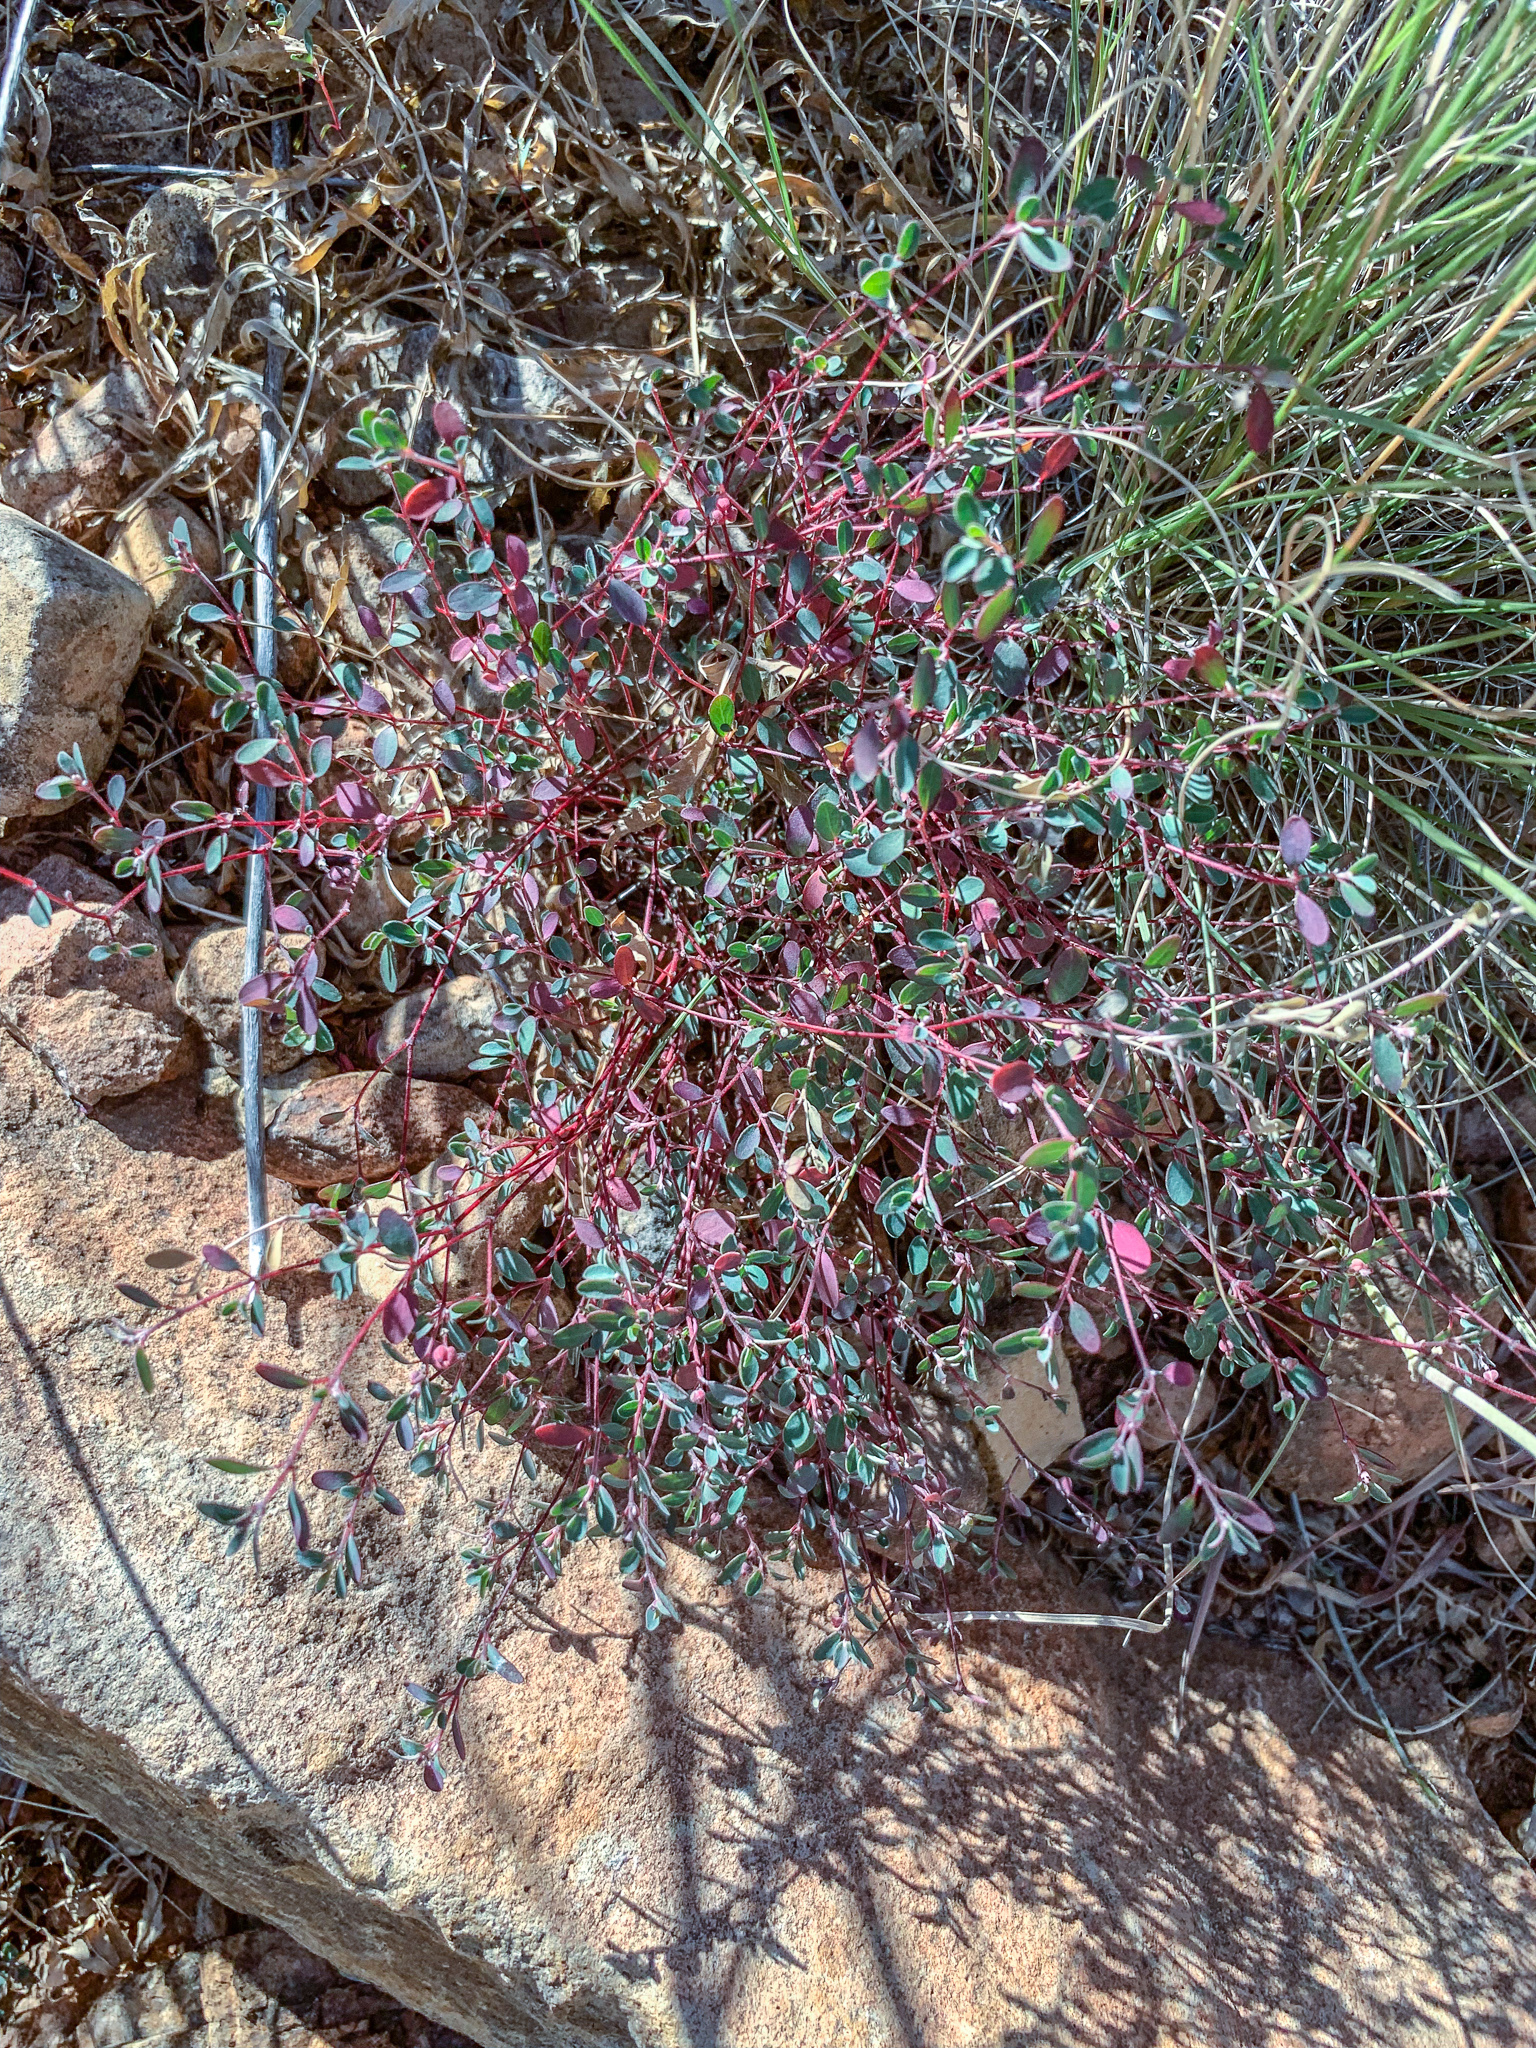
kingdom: Plantae
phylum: Tracheophyta
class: Magnoliopsida
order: Malpighiales
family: Euphorbiaceae
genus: Euphorbia
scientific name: Euphorbia cinerascens
